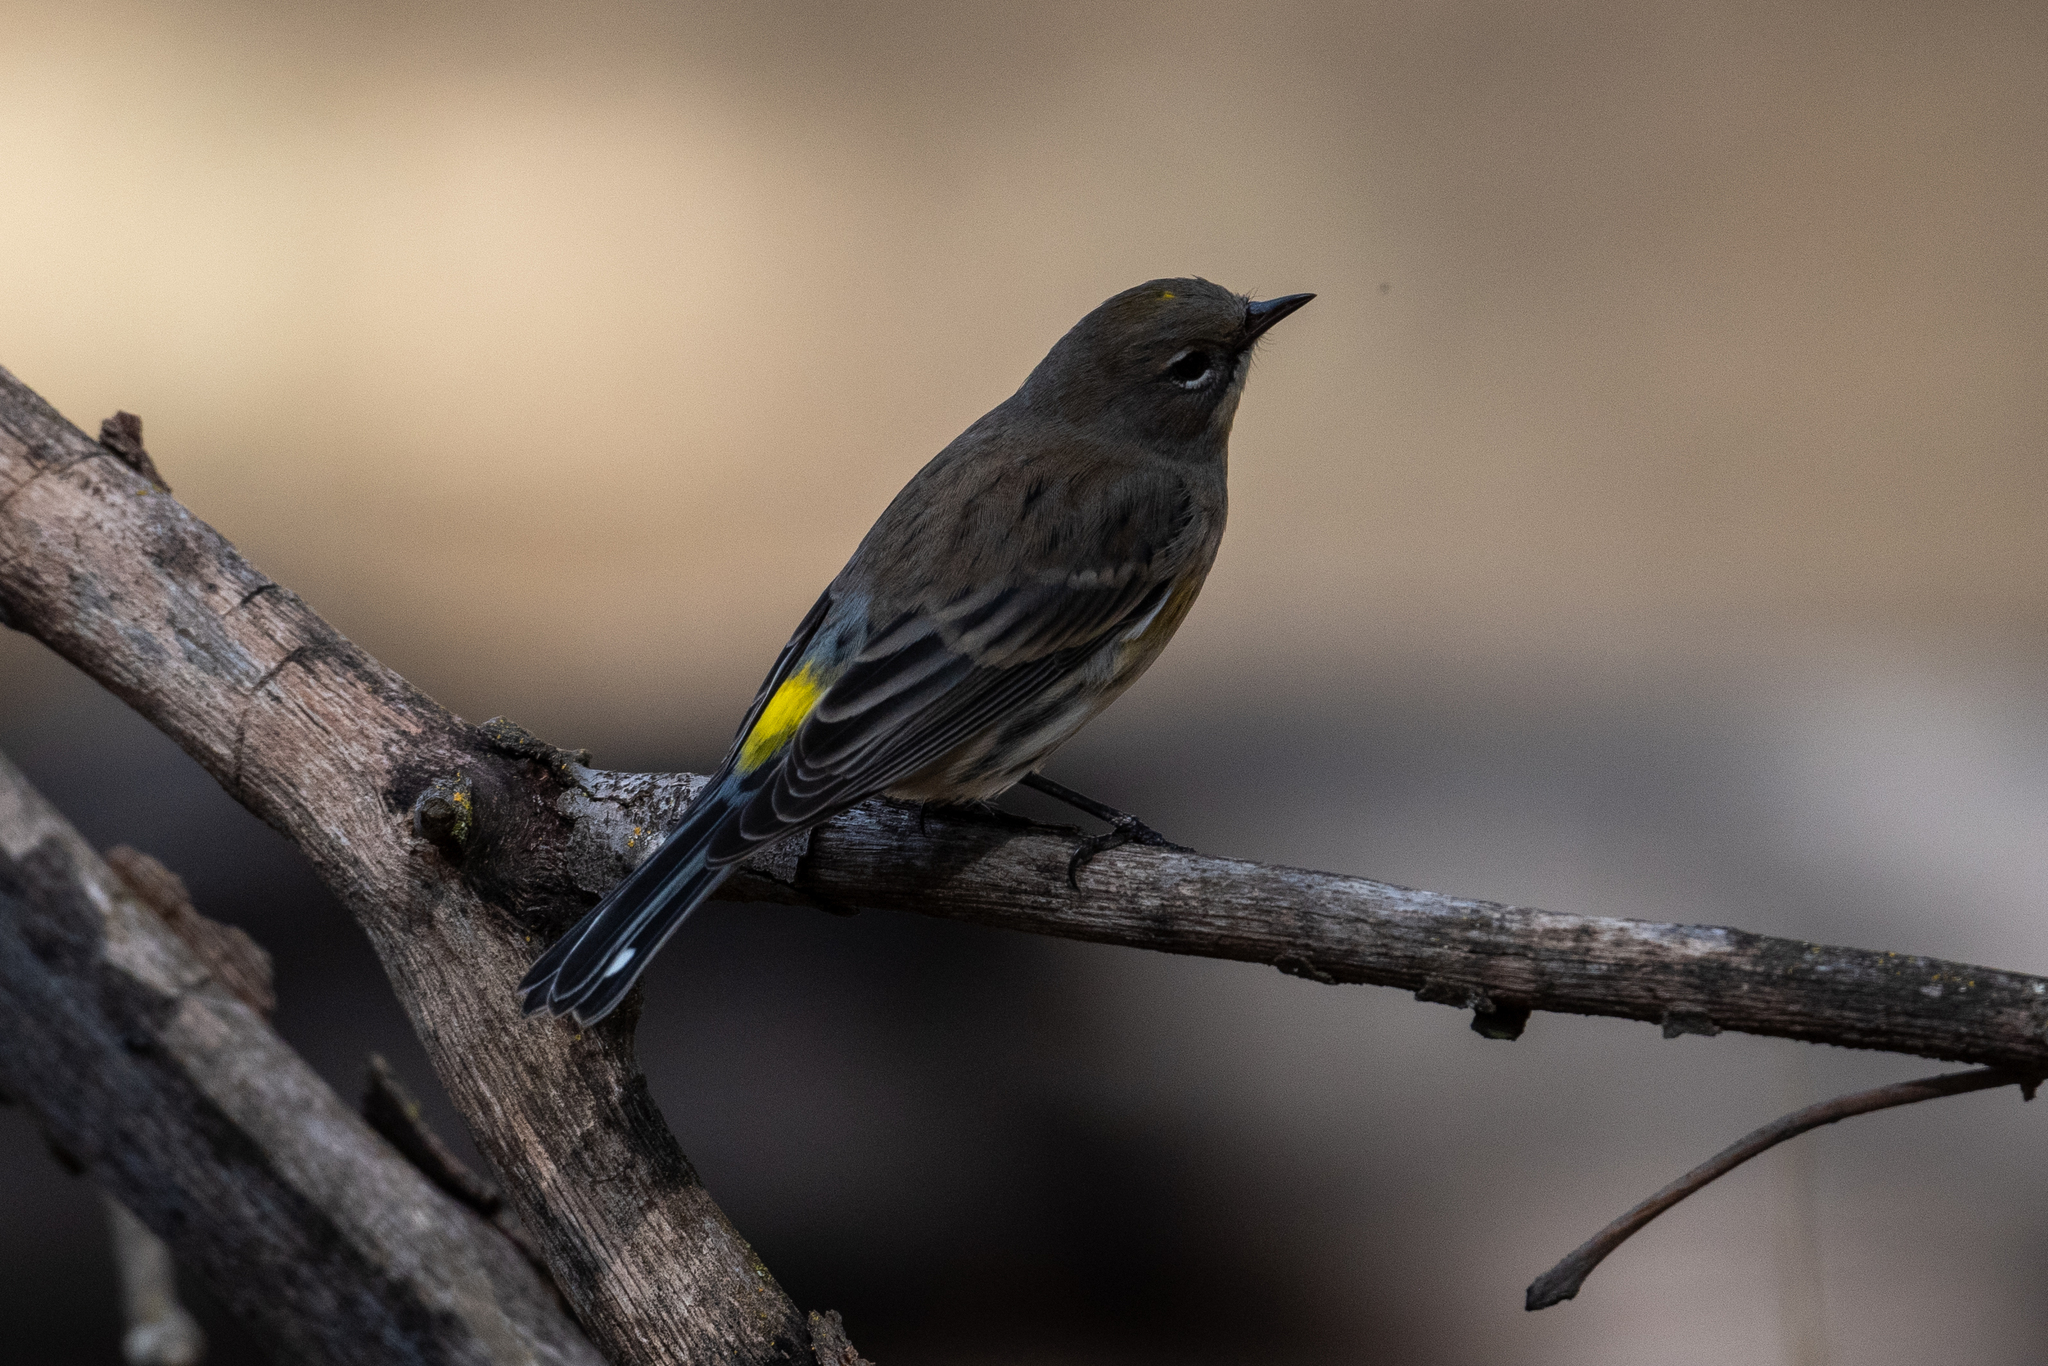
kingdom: Animalia
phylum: Chordata
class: Aves
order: Passeriformes
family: Parulidae
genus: Setophaga
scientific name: Setophaga coronata
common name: Myrtle warbler
